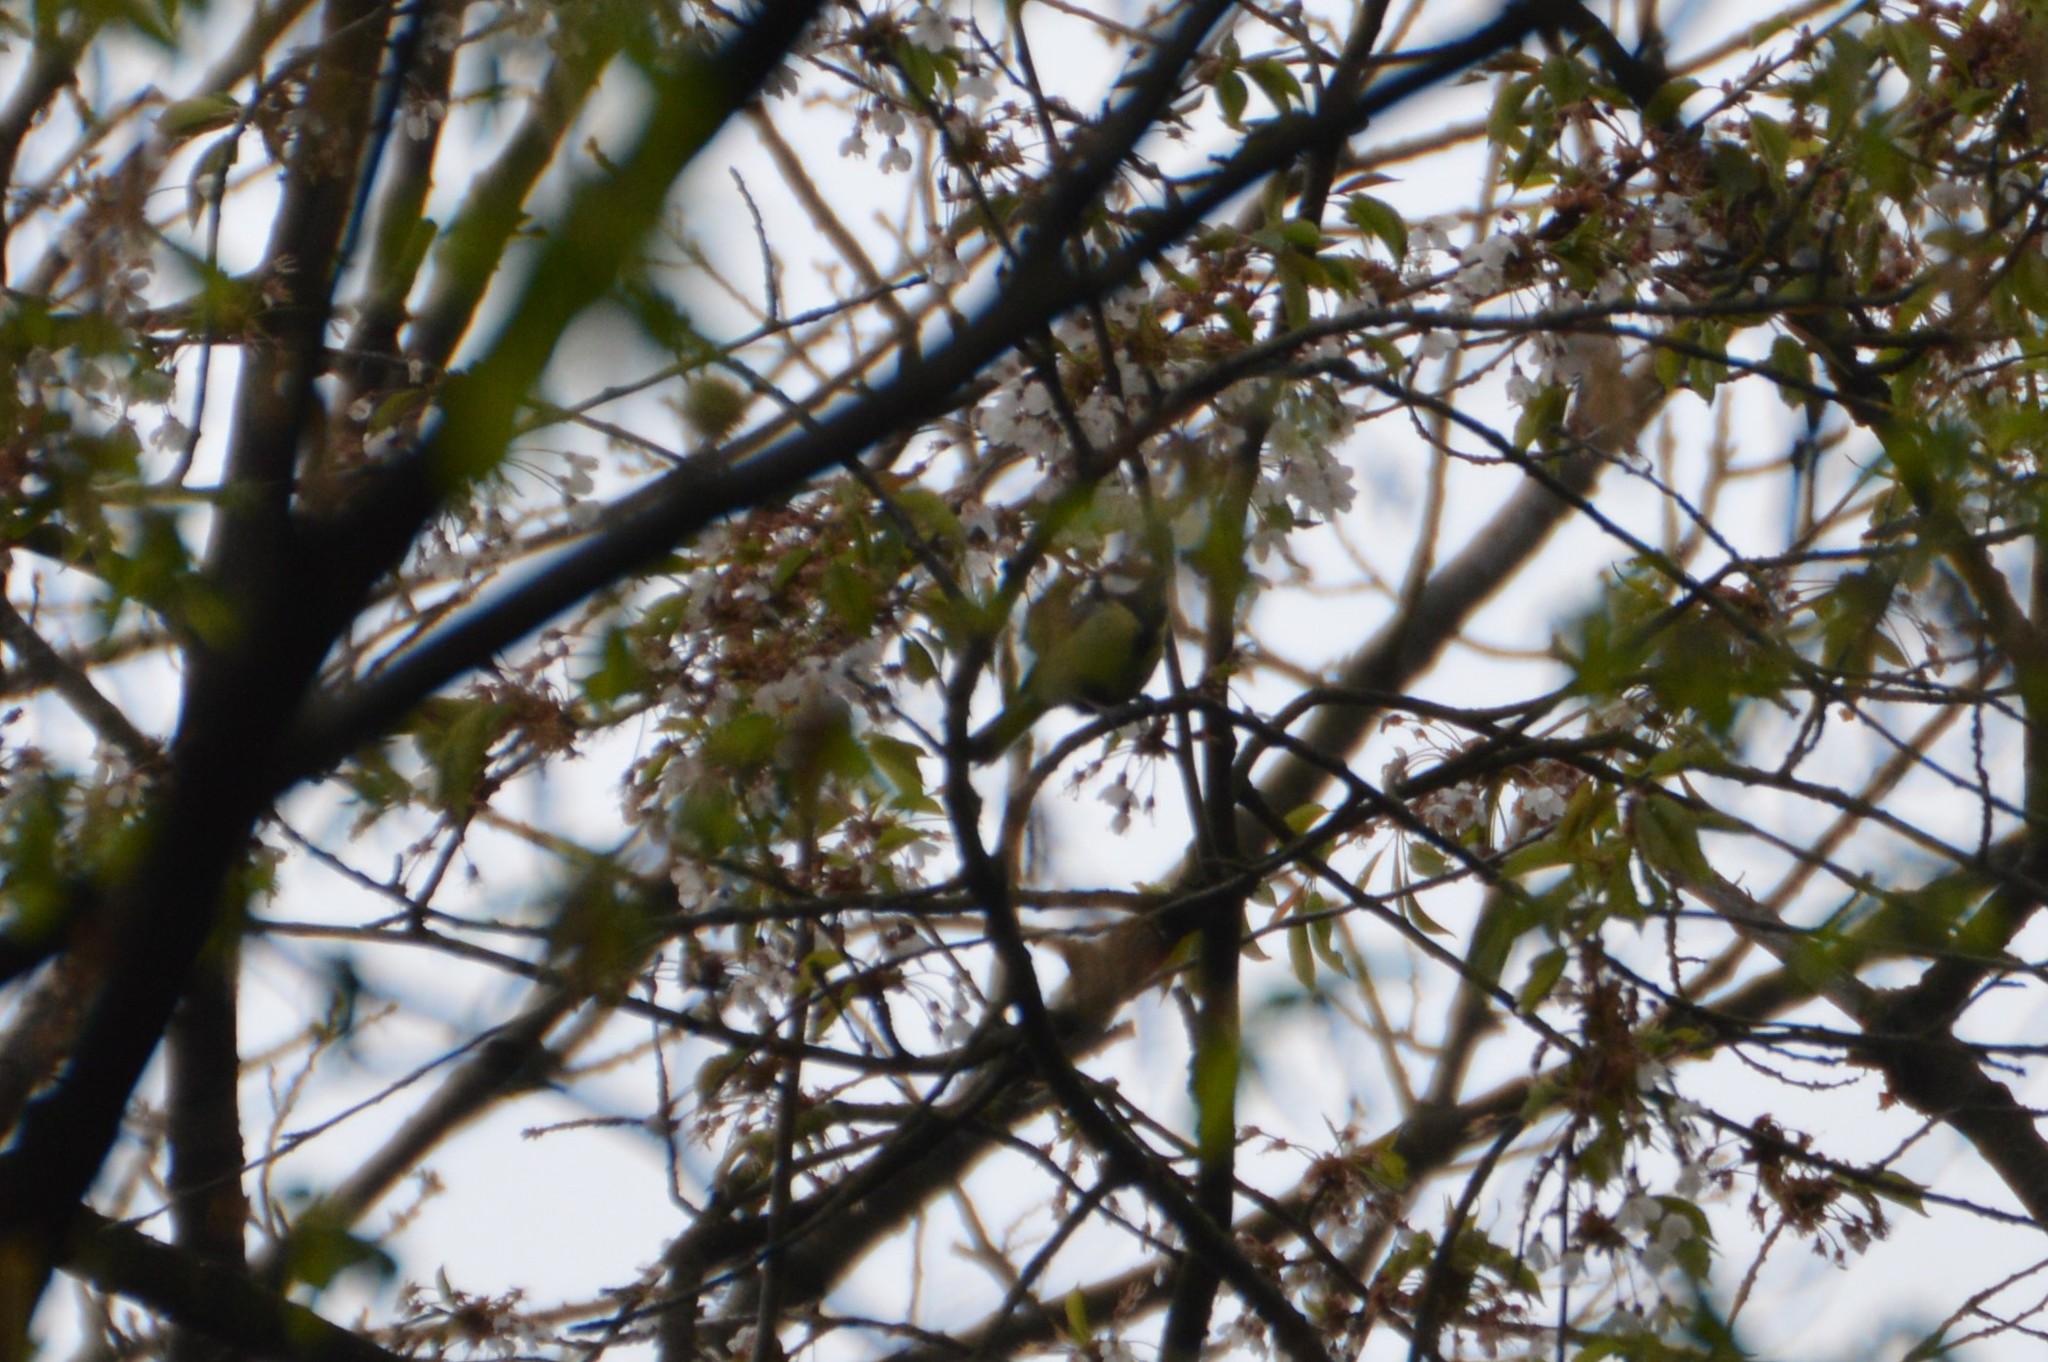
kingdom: Animalia
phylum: Chordata
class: Aves
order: Passeriformes
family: Paridae
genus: Parus
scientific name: Parus major
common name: Great tit
